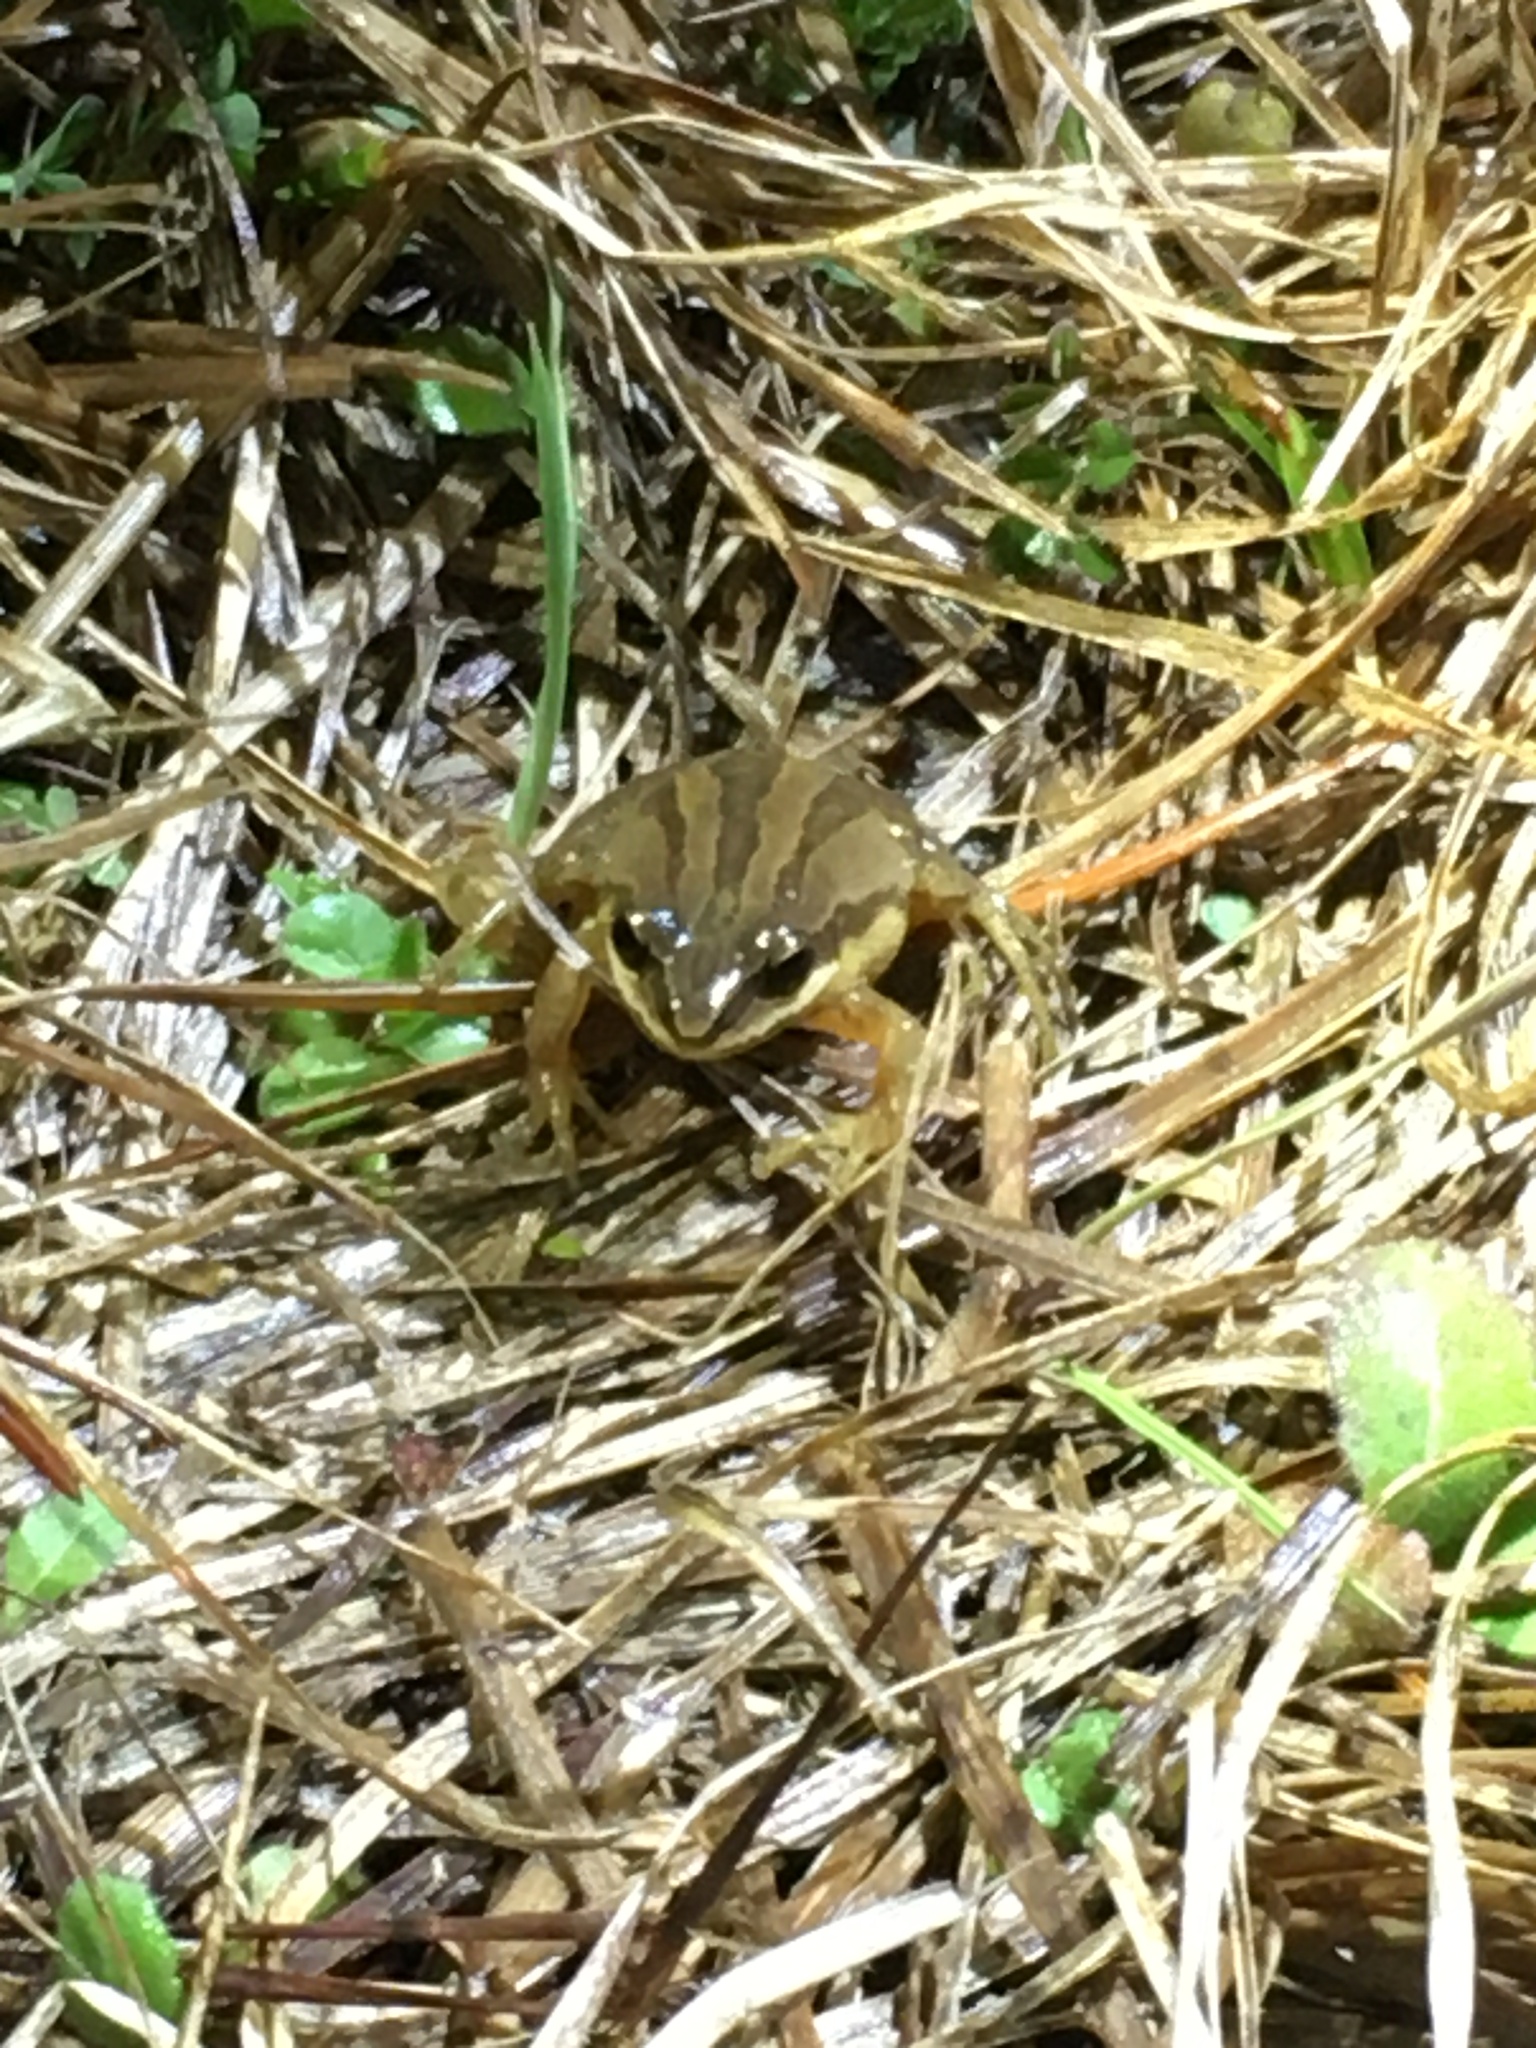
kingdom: Animalia
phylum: Chordata
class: Amphibia
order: Anura
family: Hylidae
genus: Pseudacris
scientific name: Pseudacris brimleyi
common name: Brimley's chorus frog
